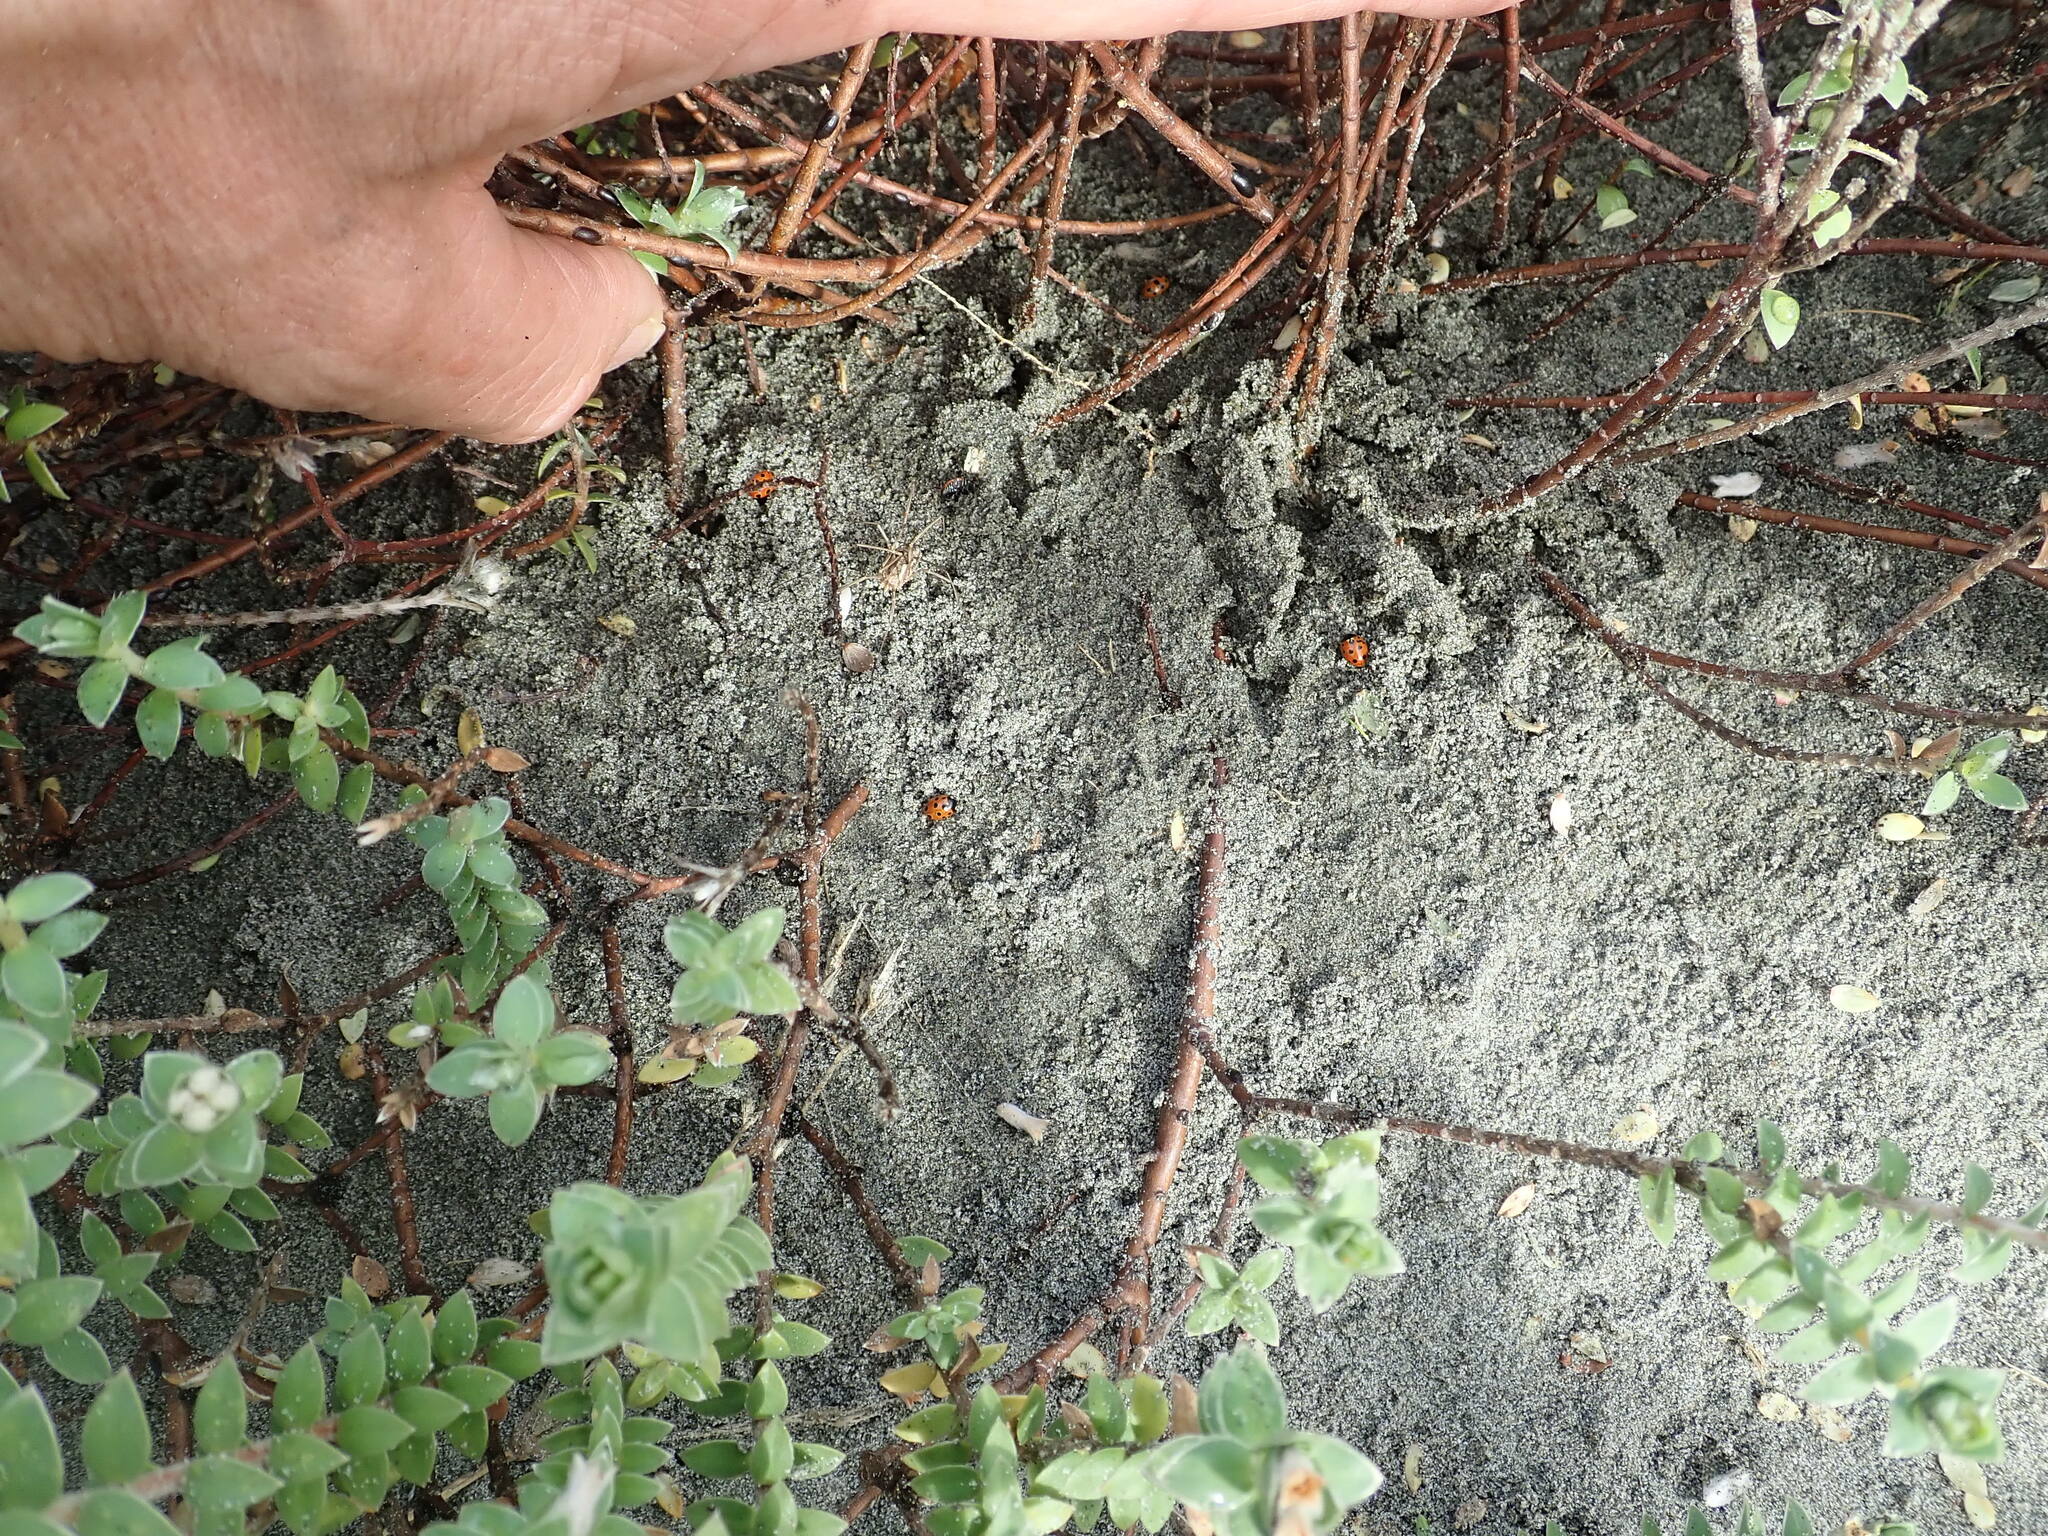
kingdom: Animalia
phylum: Arthropoda
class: Insecta
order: Coleoptera
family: Coccinellidae
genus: Coccinella
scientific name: Coccinella undecimpunctata
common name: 11-spot ladybird
